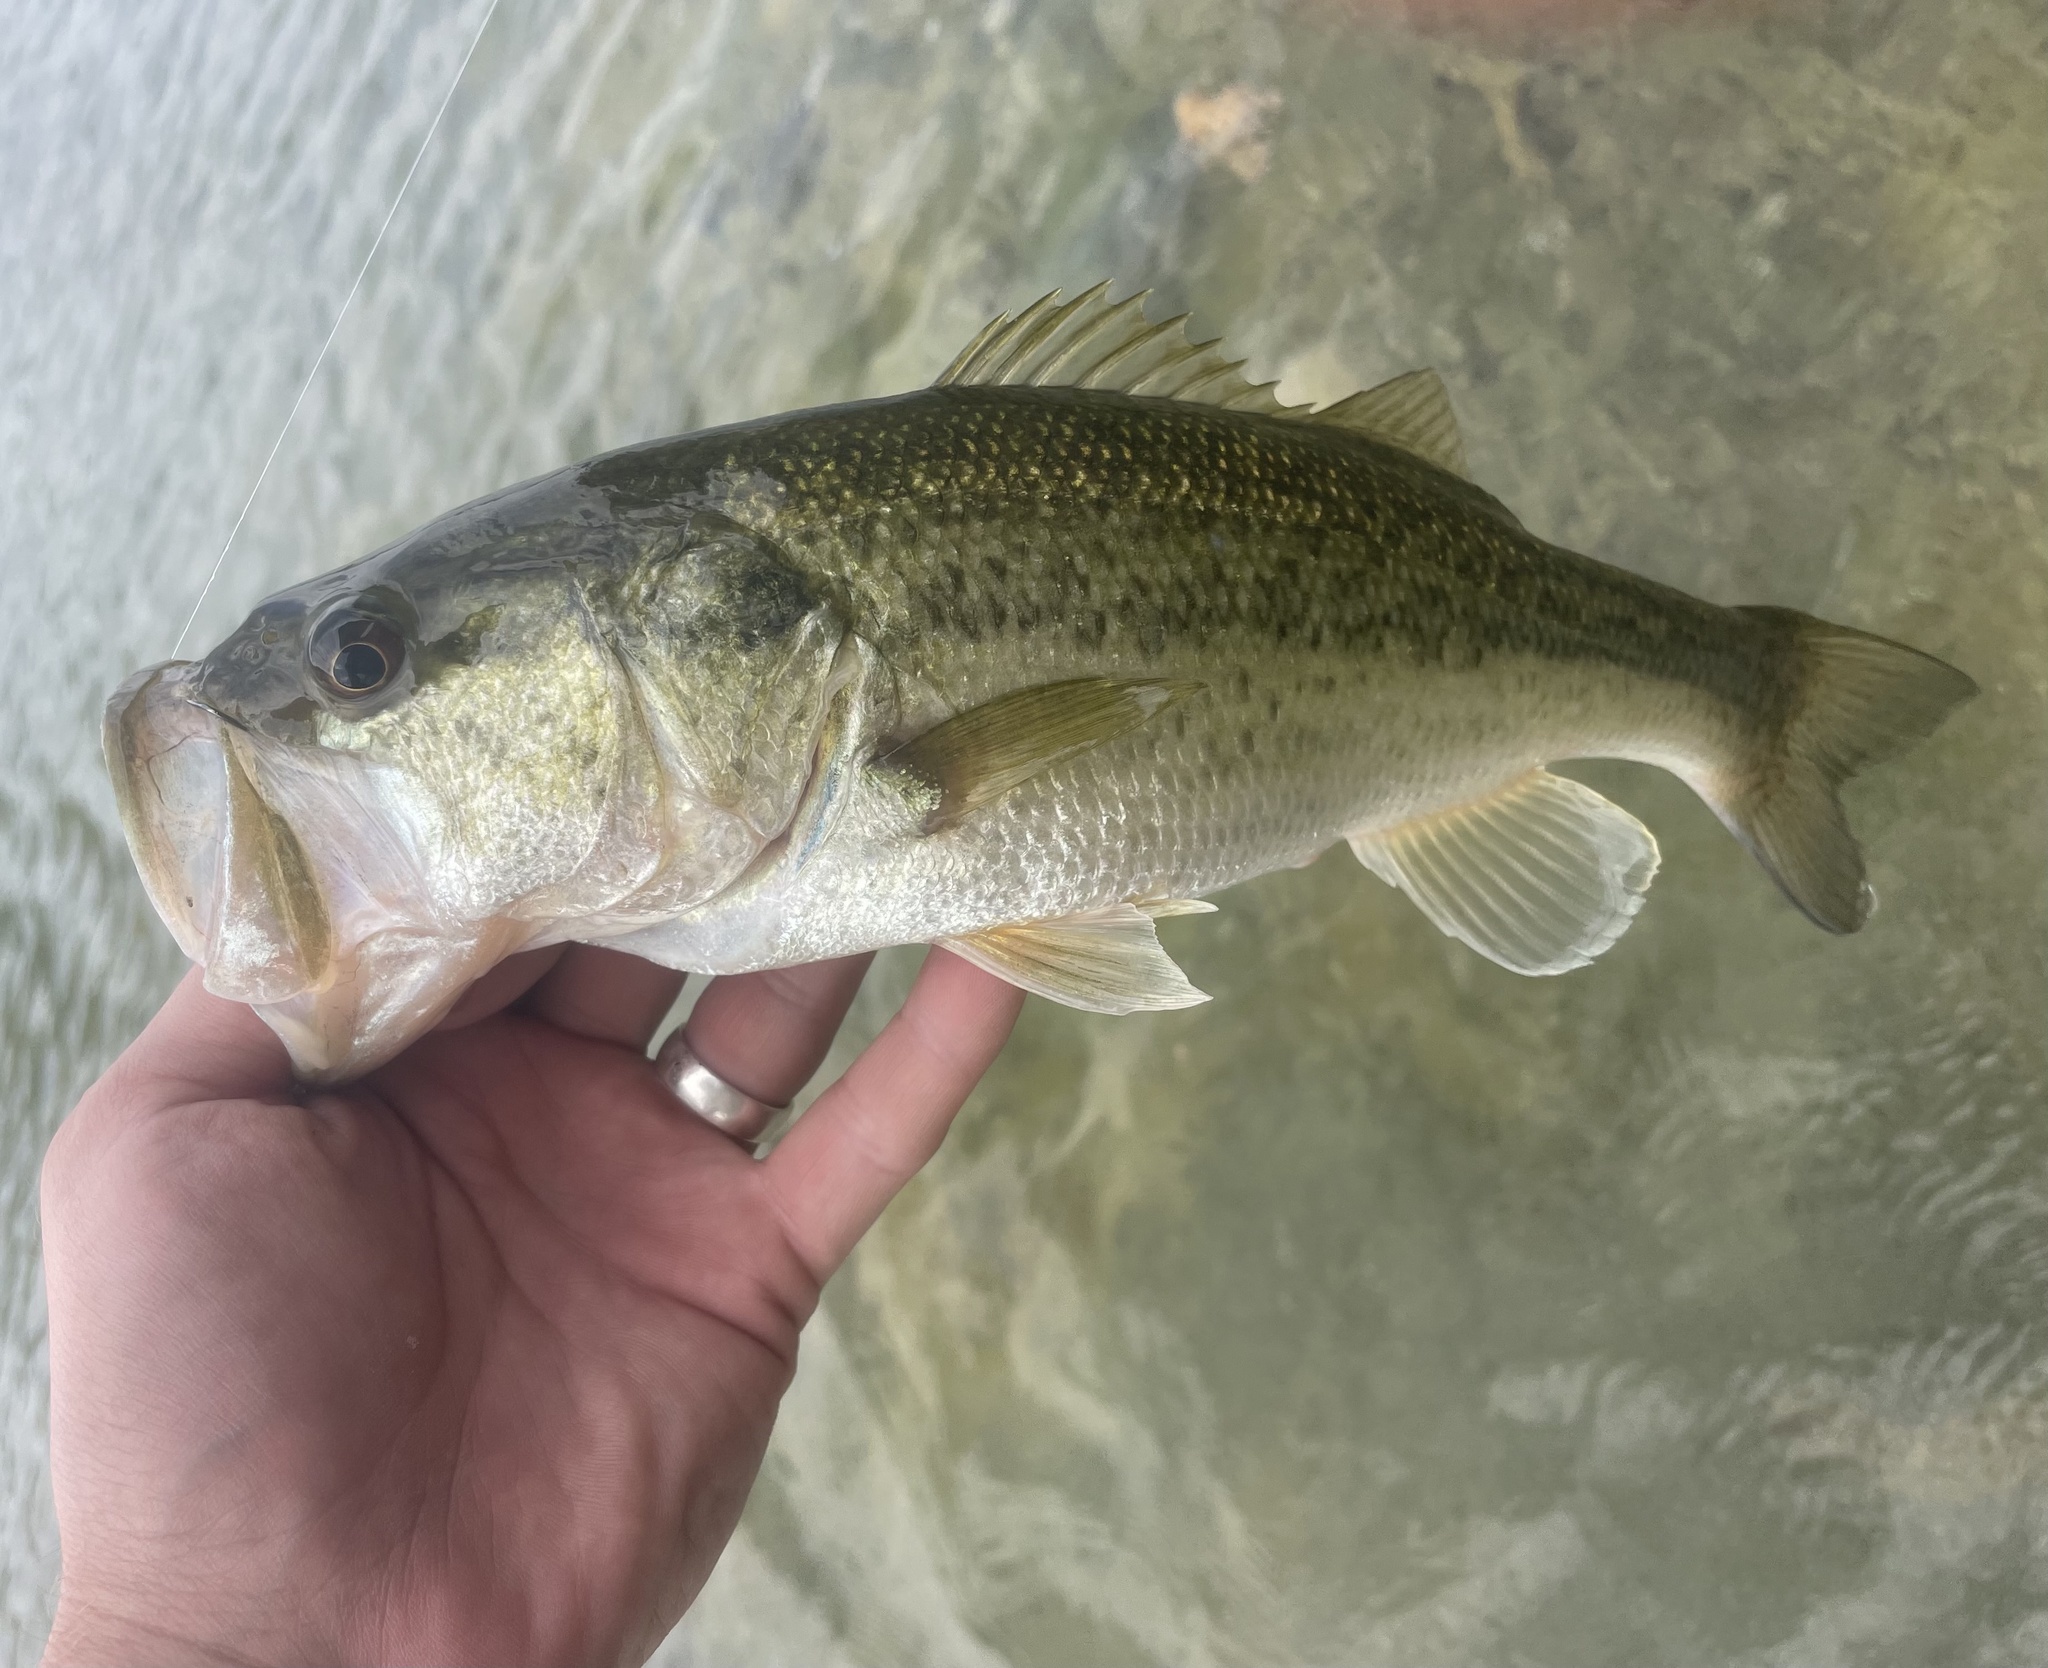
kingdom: Animalia
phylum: Chordata
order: Perciformes
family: Centrarchidae
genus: Micropterus
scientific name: Micropterus
